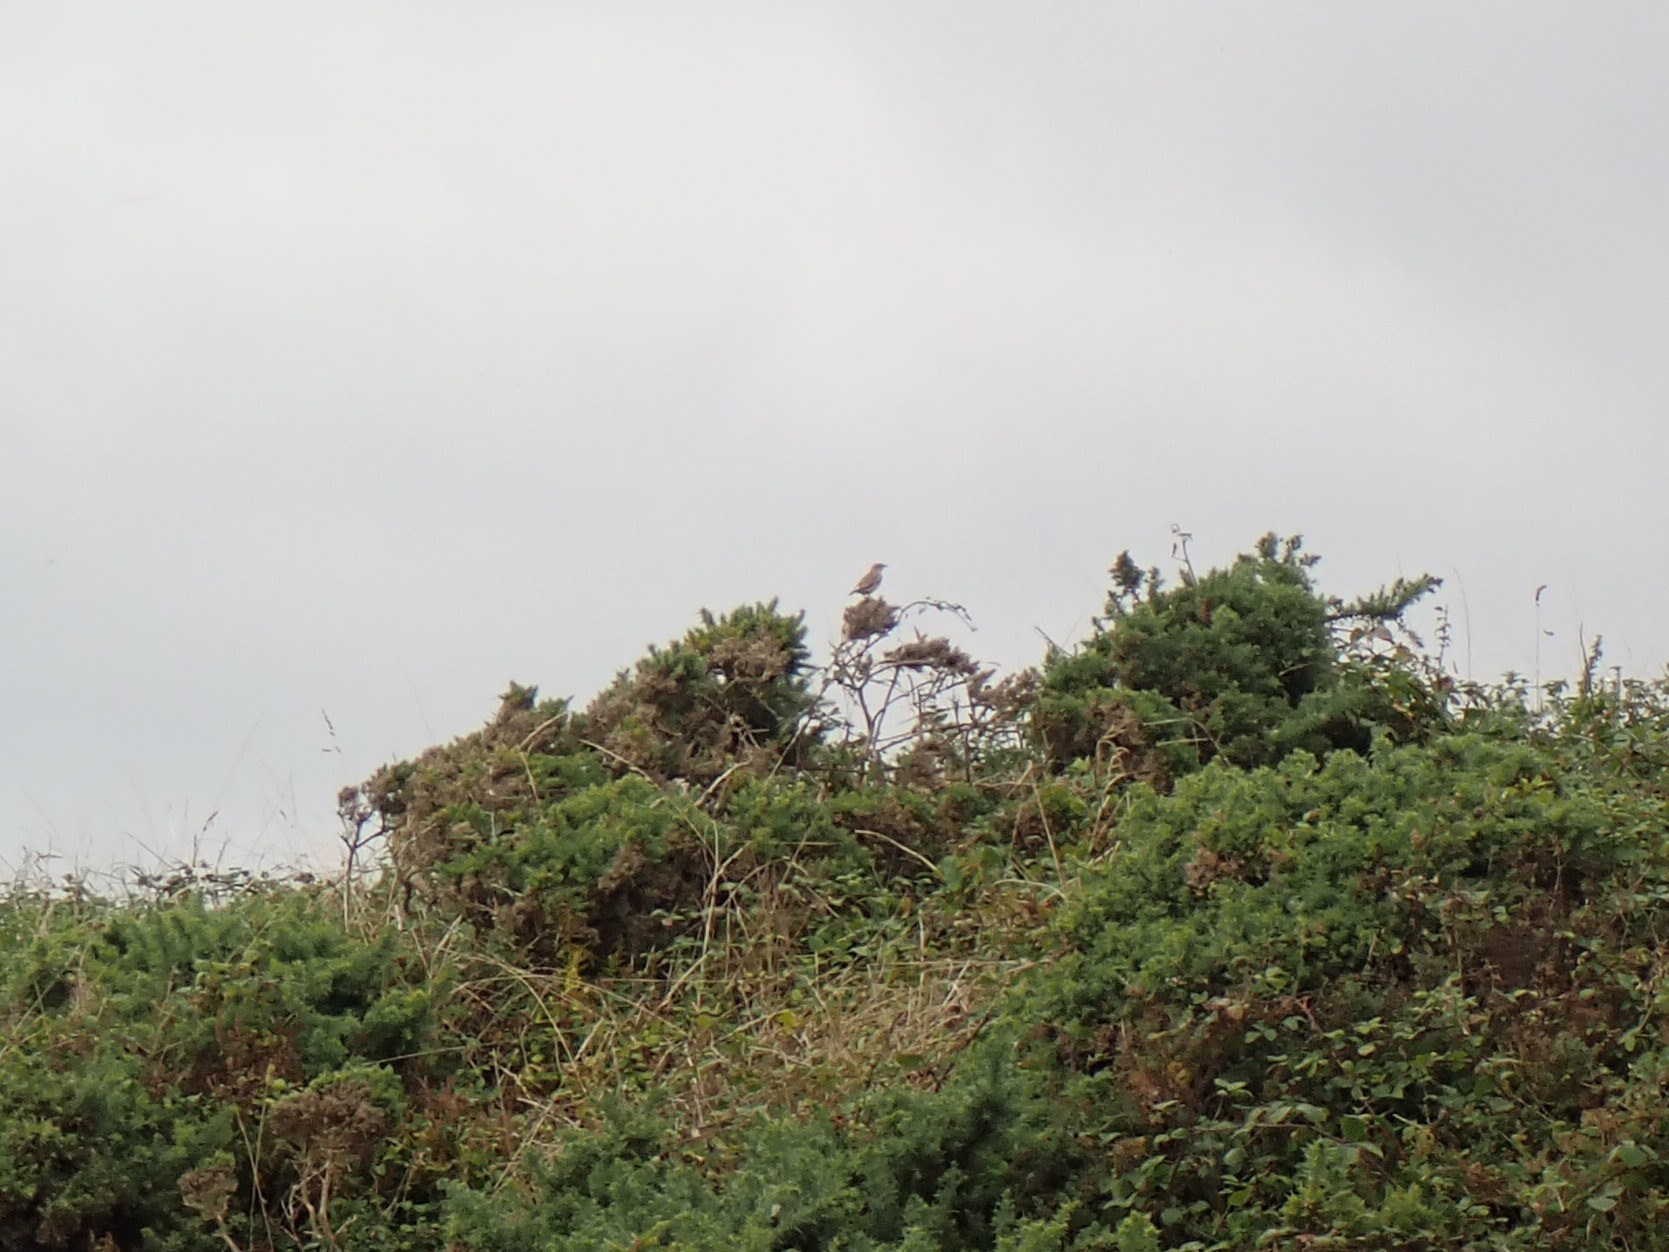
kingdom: Animalia
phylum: Chordata
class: Aves
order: Passeriformes
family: Muscicapidae
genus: Oenanthe
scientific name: Oenanthe oenanthe
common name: Northern wheatear
